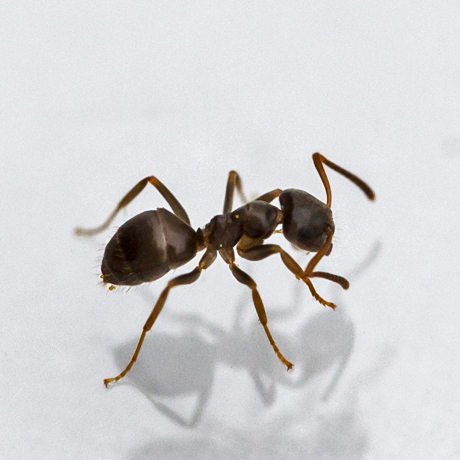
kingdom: Animalia
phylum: Arthropoda
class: Insecta
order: Hymenoptera
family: Formicidae
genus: Lasius
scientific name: Lasius americanus
